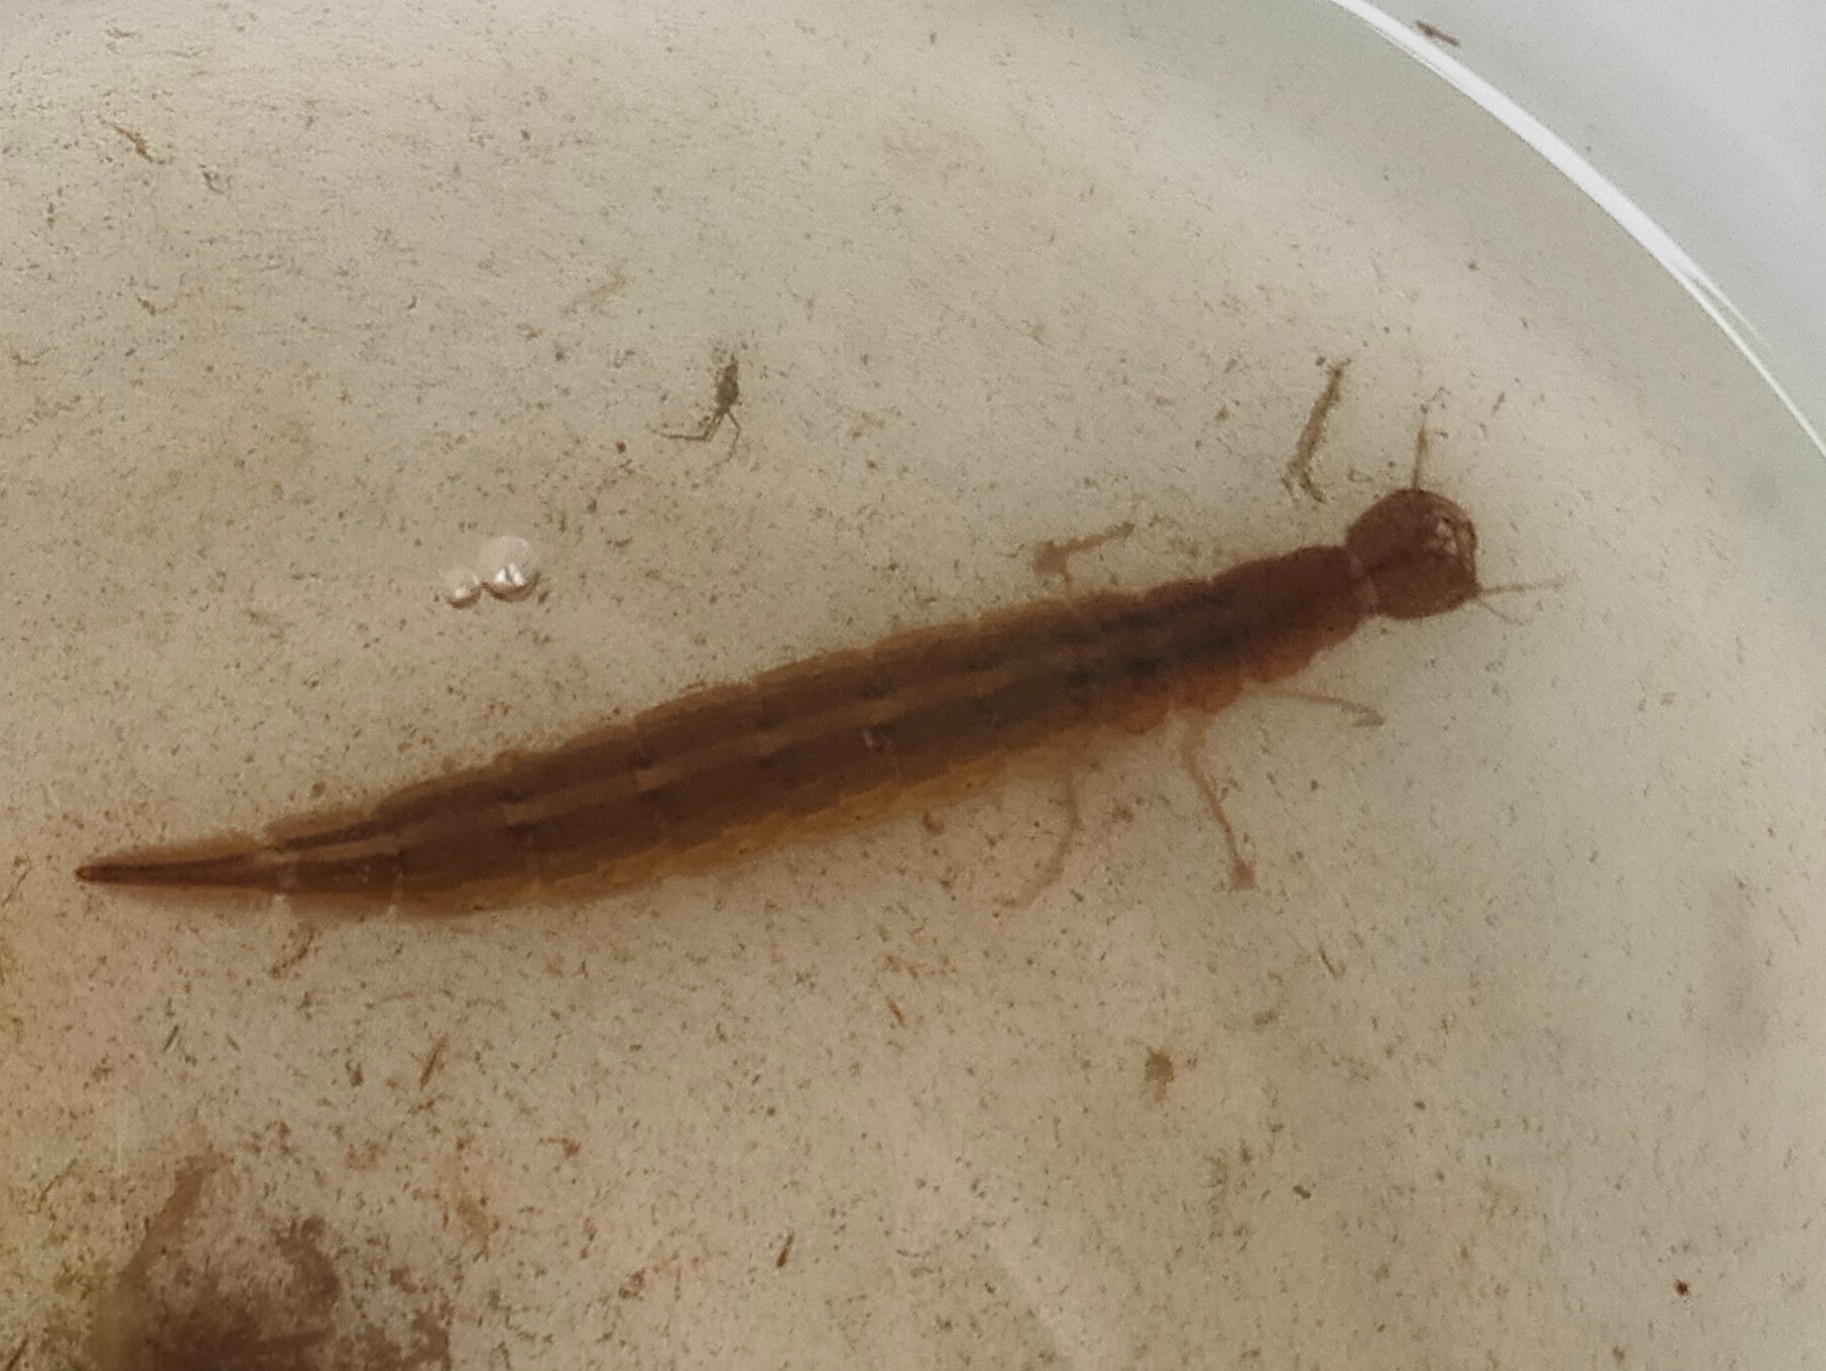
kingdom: Animalia
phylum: Arthropoda
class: Insecta
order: Coleoptera
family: Dytiscidae
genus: Cybister
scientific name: Cybister chinensis
